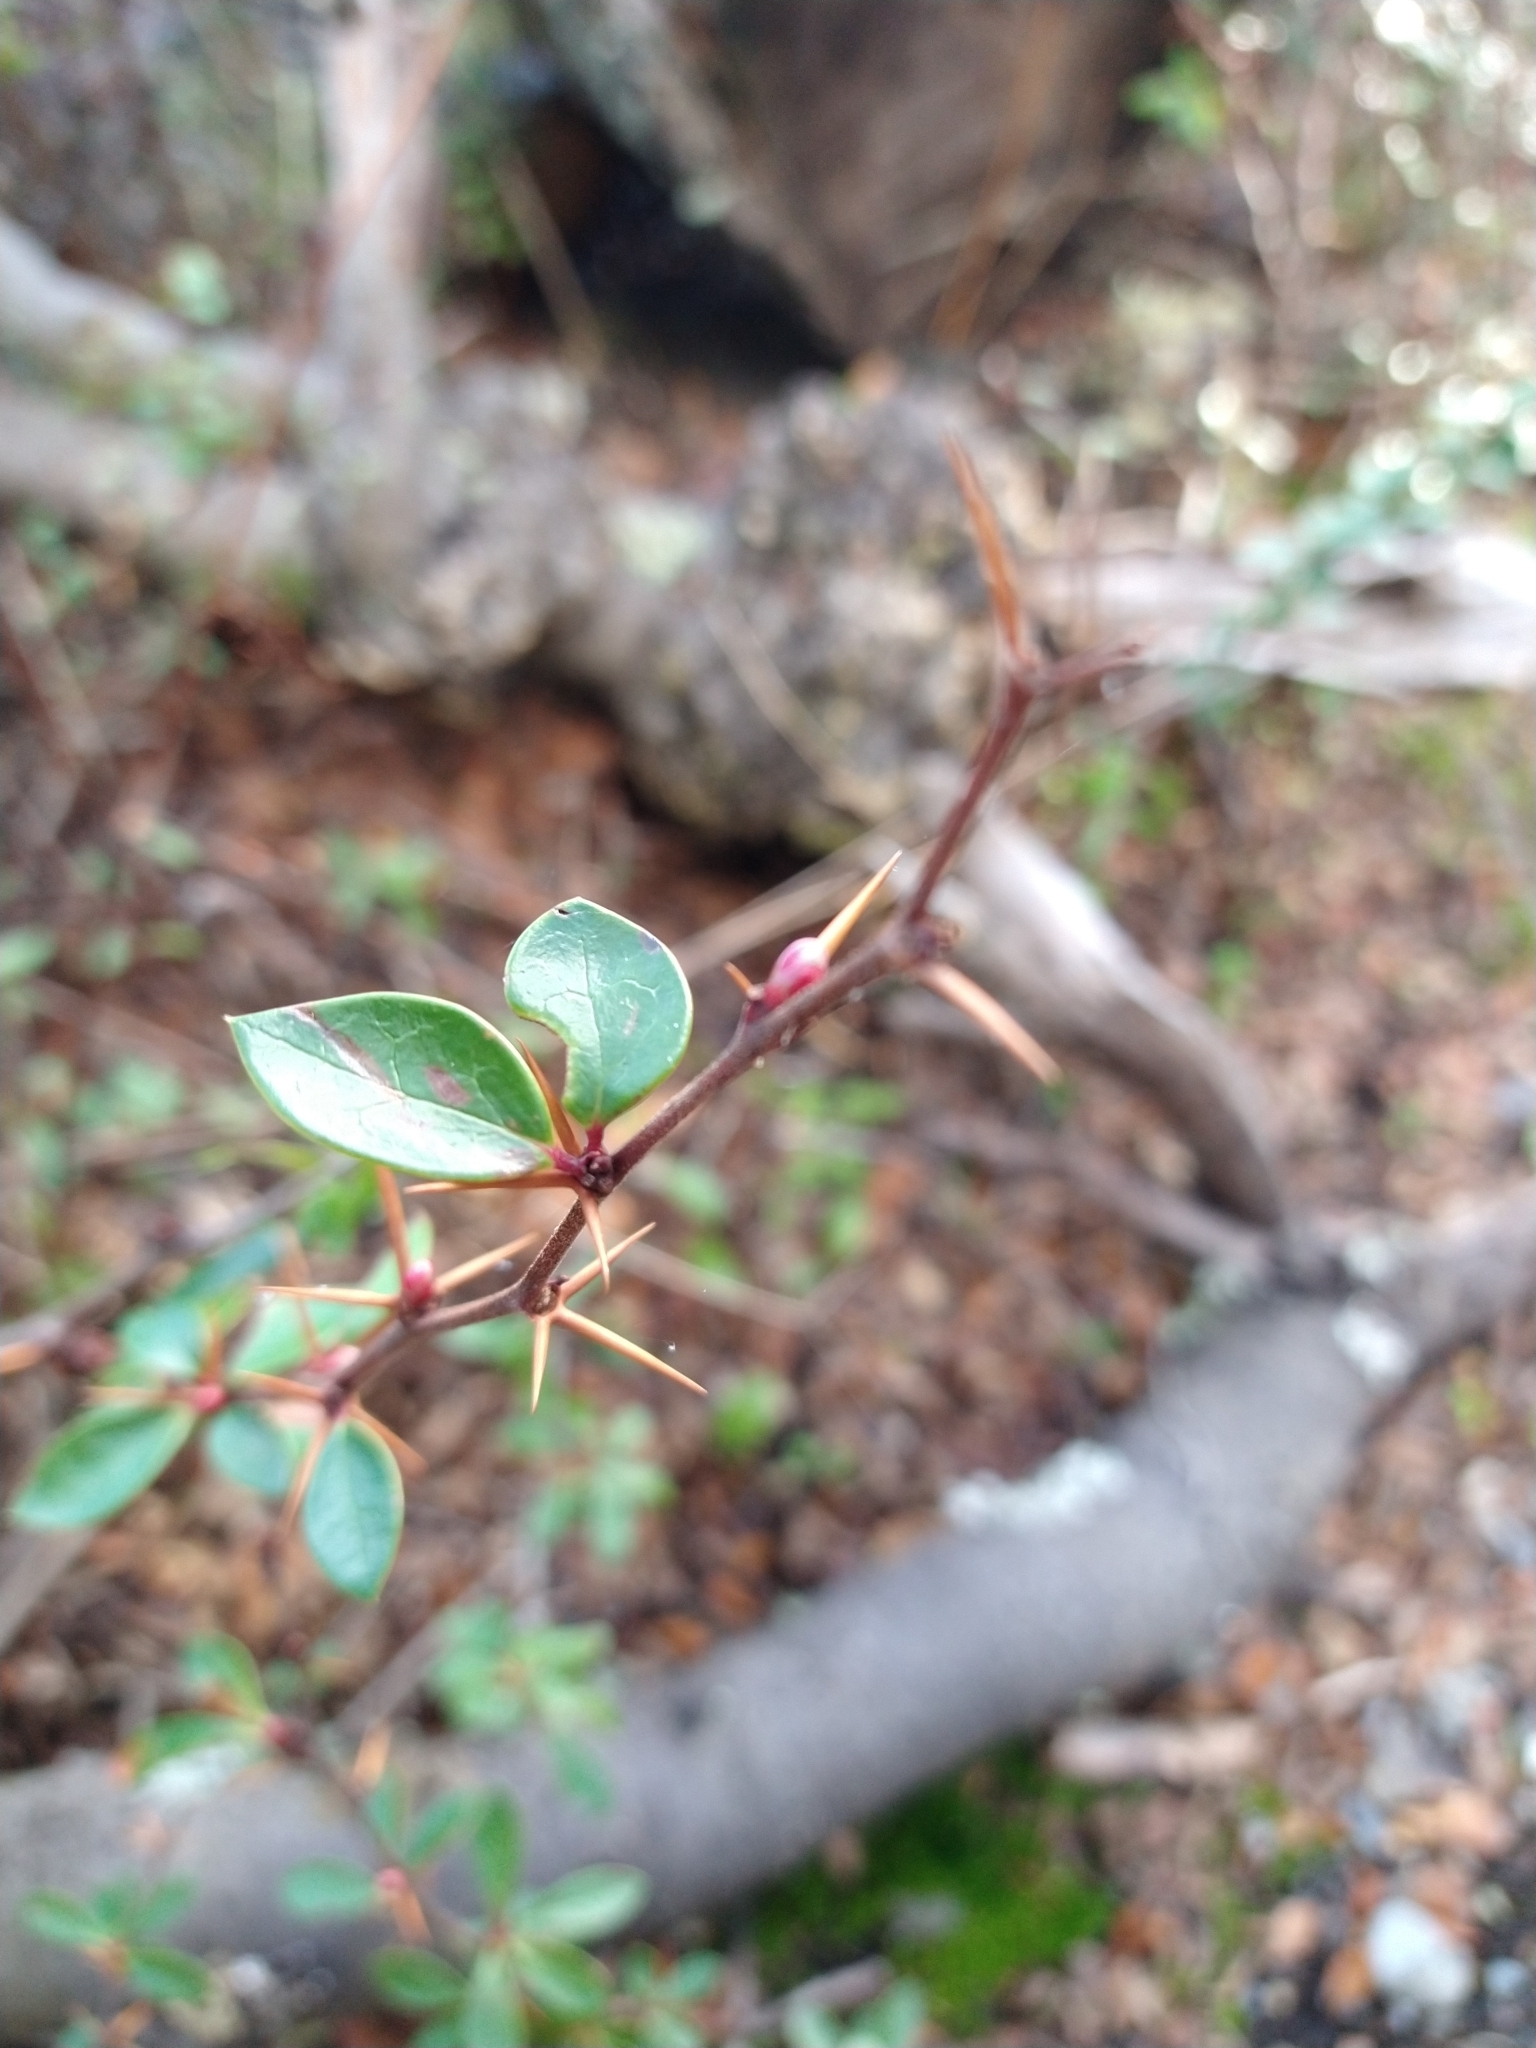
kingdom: Plantae
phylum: Tracheophyta
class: Magnoliopsida
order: Ranunculales
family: Berberidaceae
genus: Berberis
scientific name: Berberis microphylla
